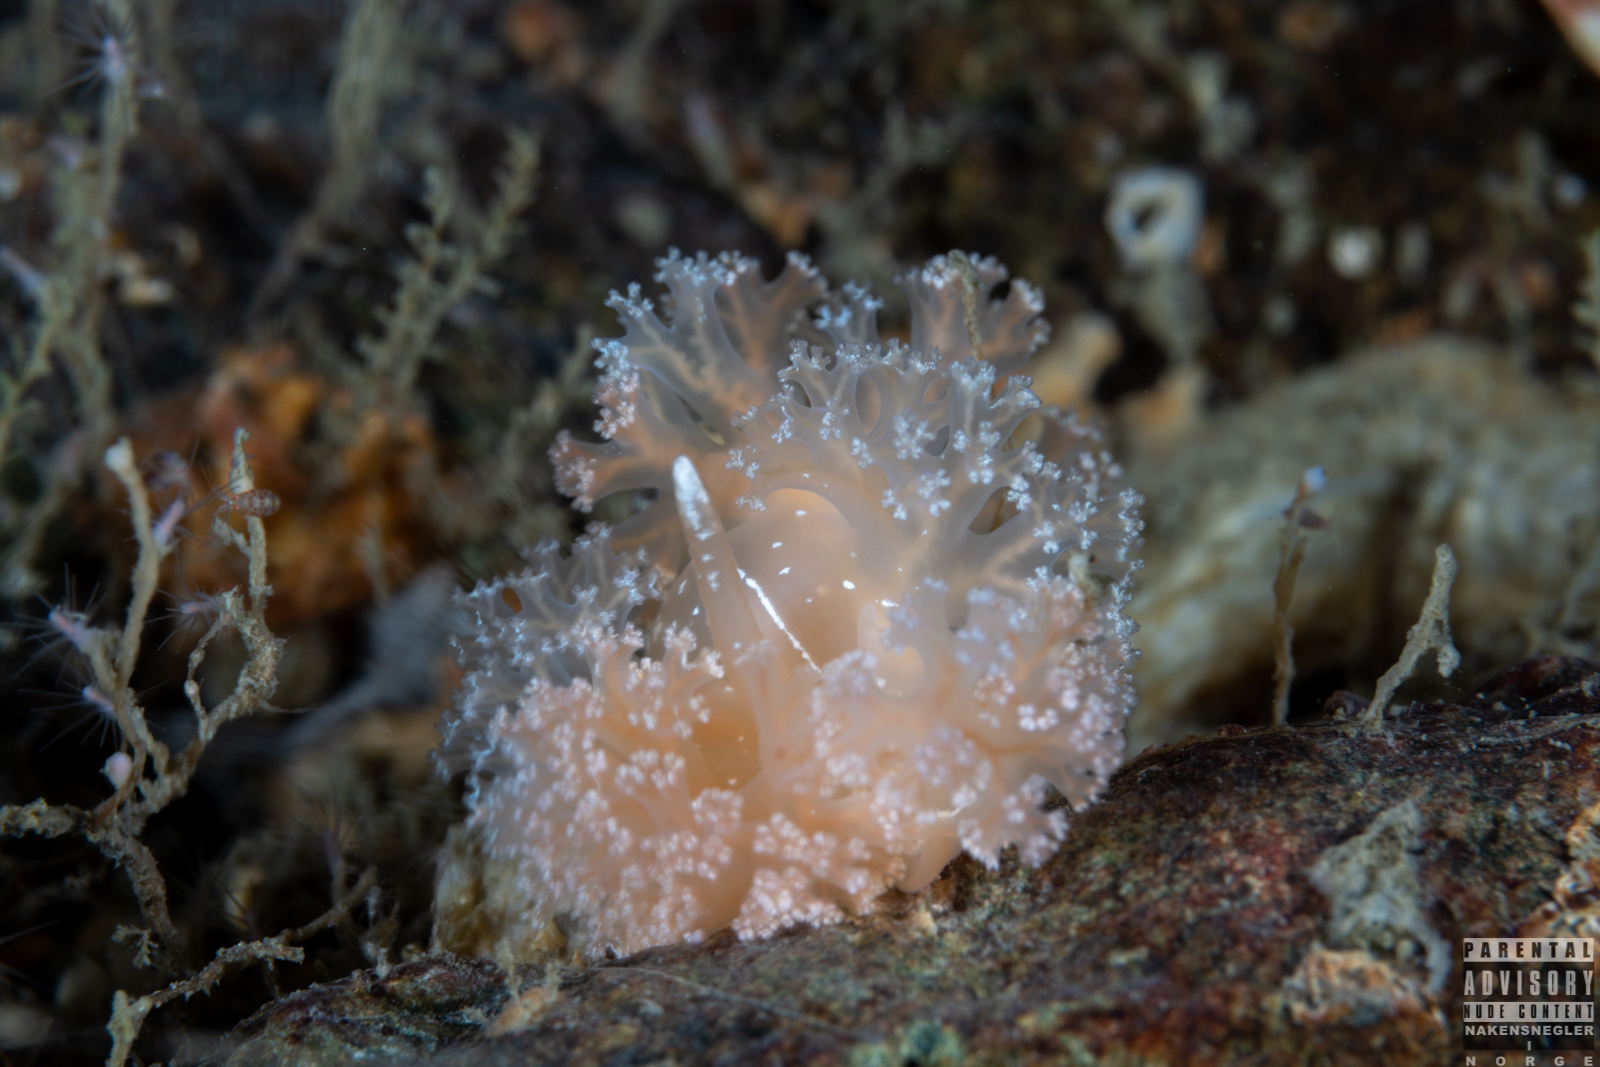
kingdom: Animalia
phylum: Mollusca
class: Gastropoda
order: Nudibranchia
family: Heroidae
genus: Hero
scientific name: Hero formosa
